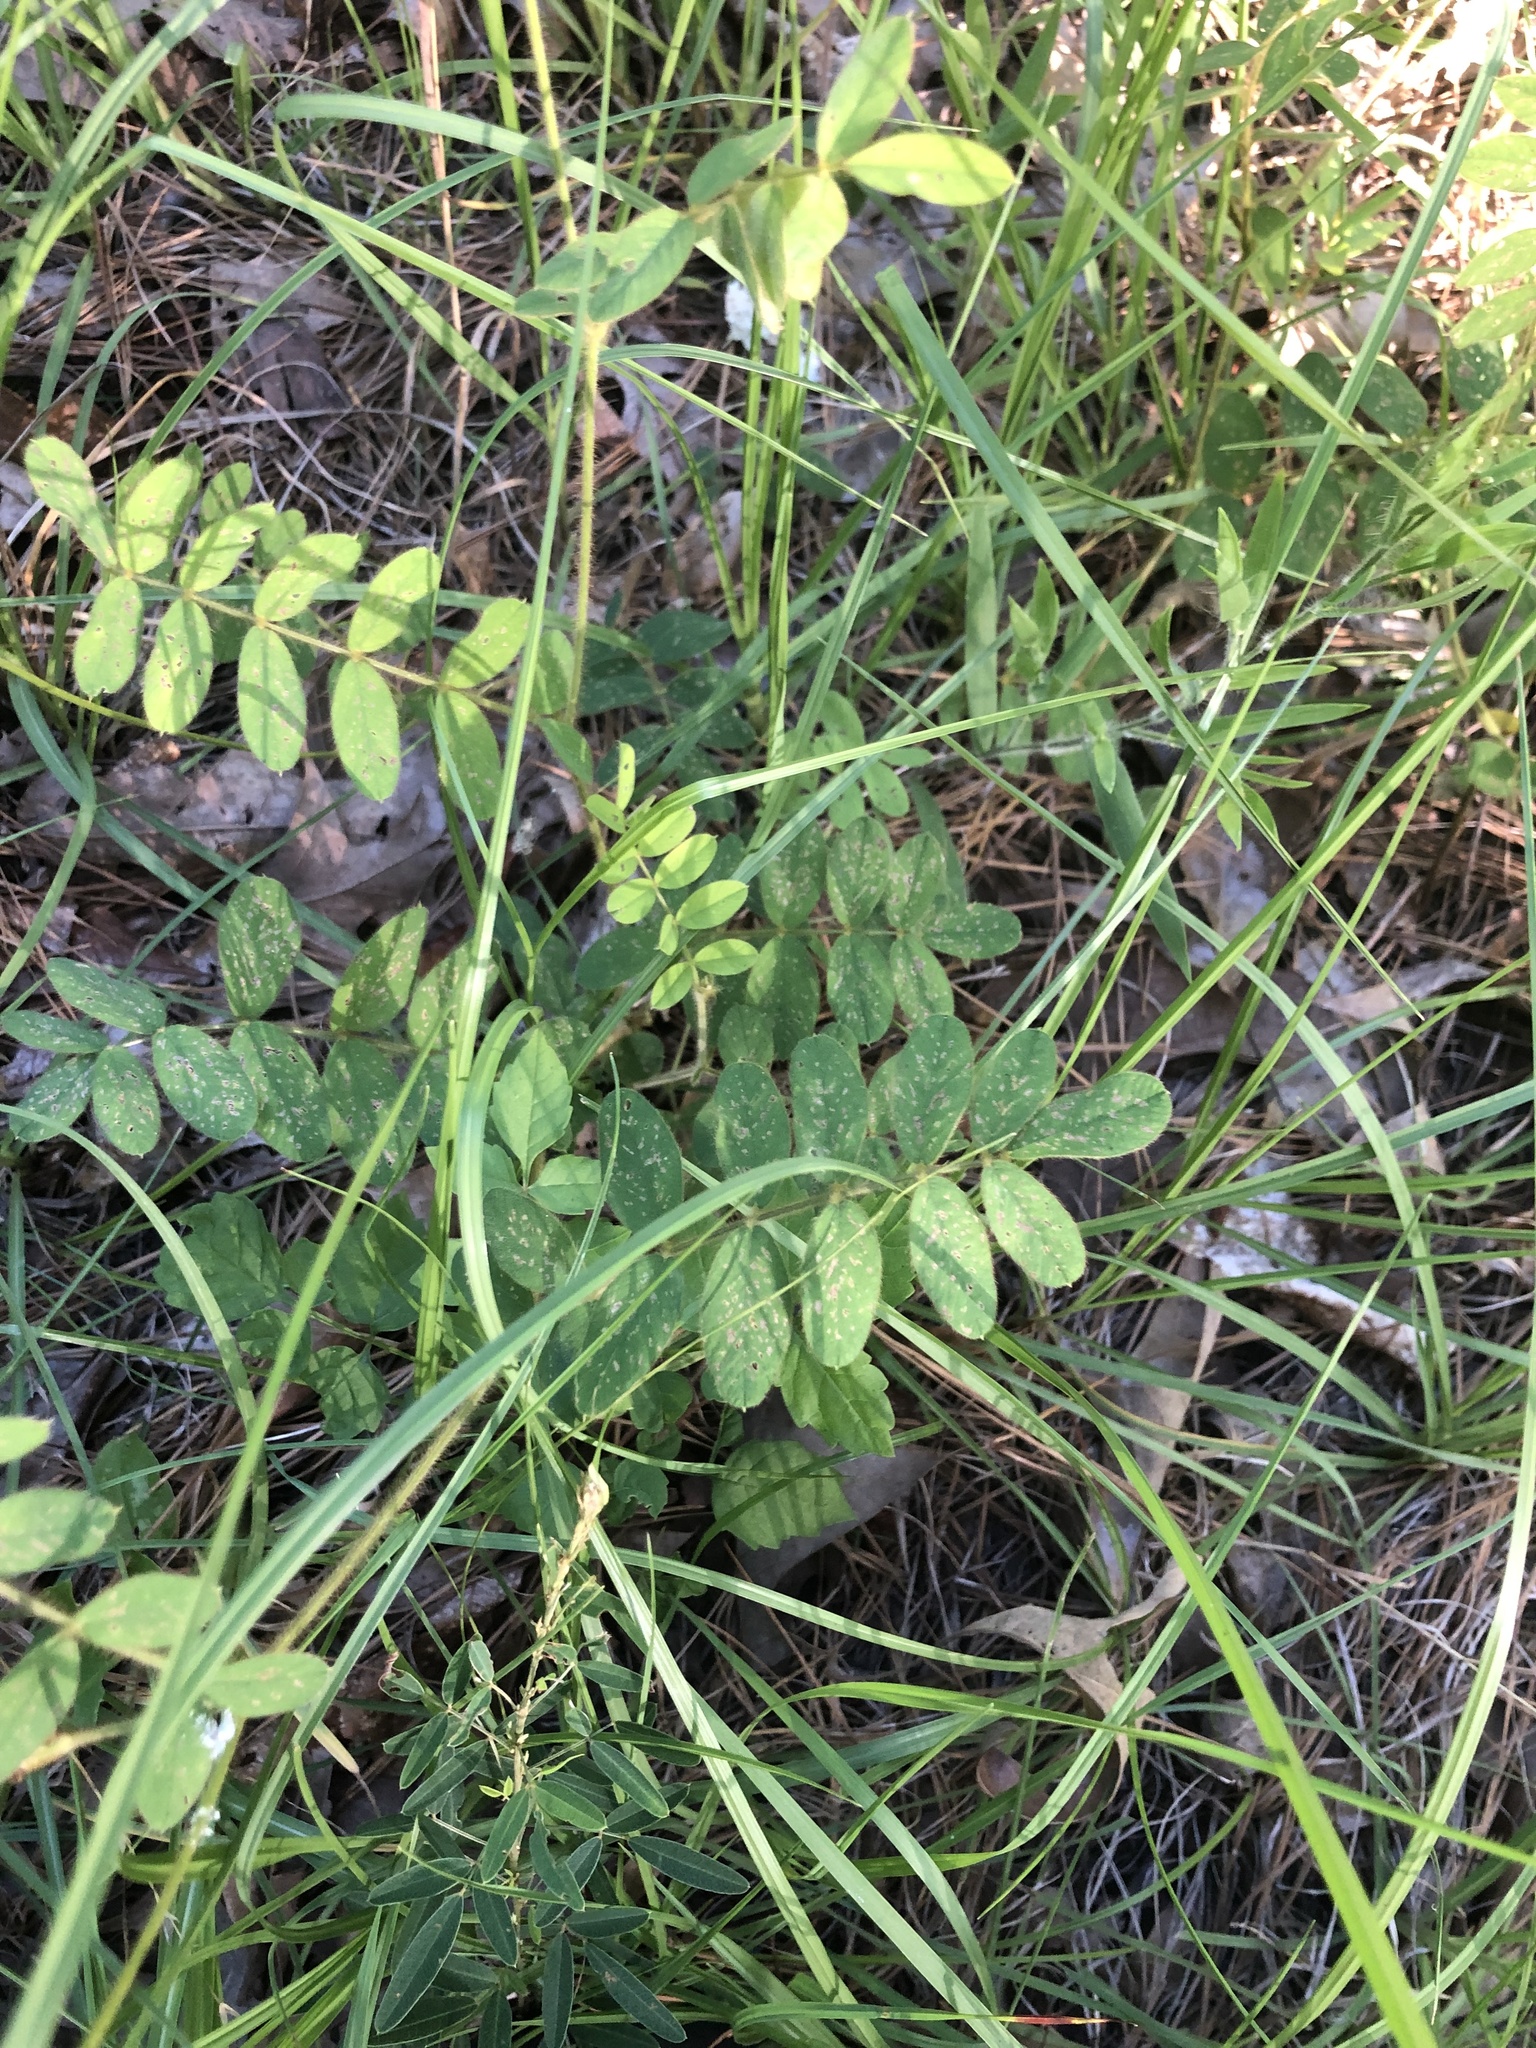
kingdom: Plantae
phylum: Tracheophyta
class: Magnoliopsida
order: Fabales
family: Fabaceae
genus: Tephrosia
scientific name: Tephrosia spicata
